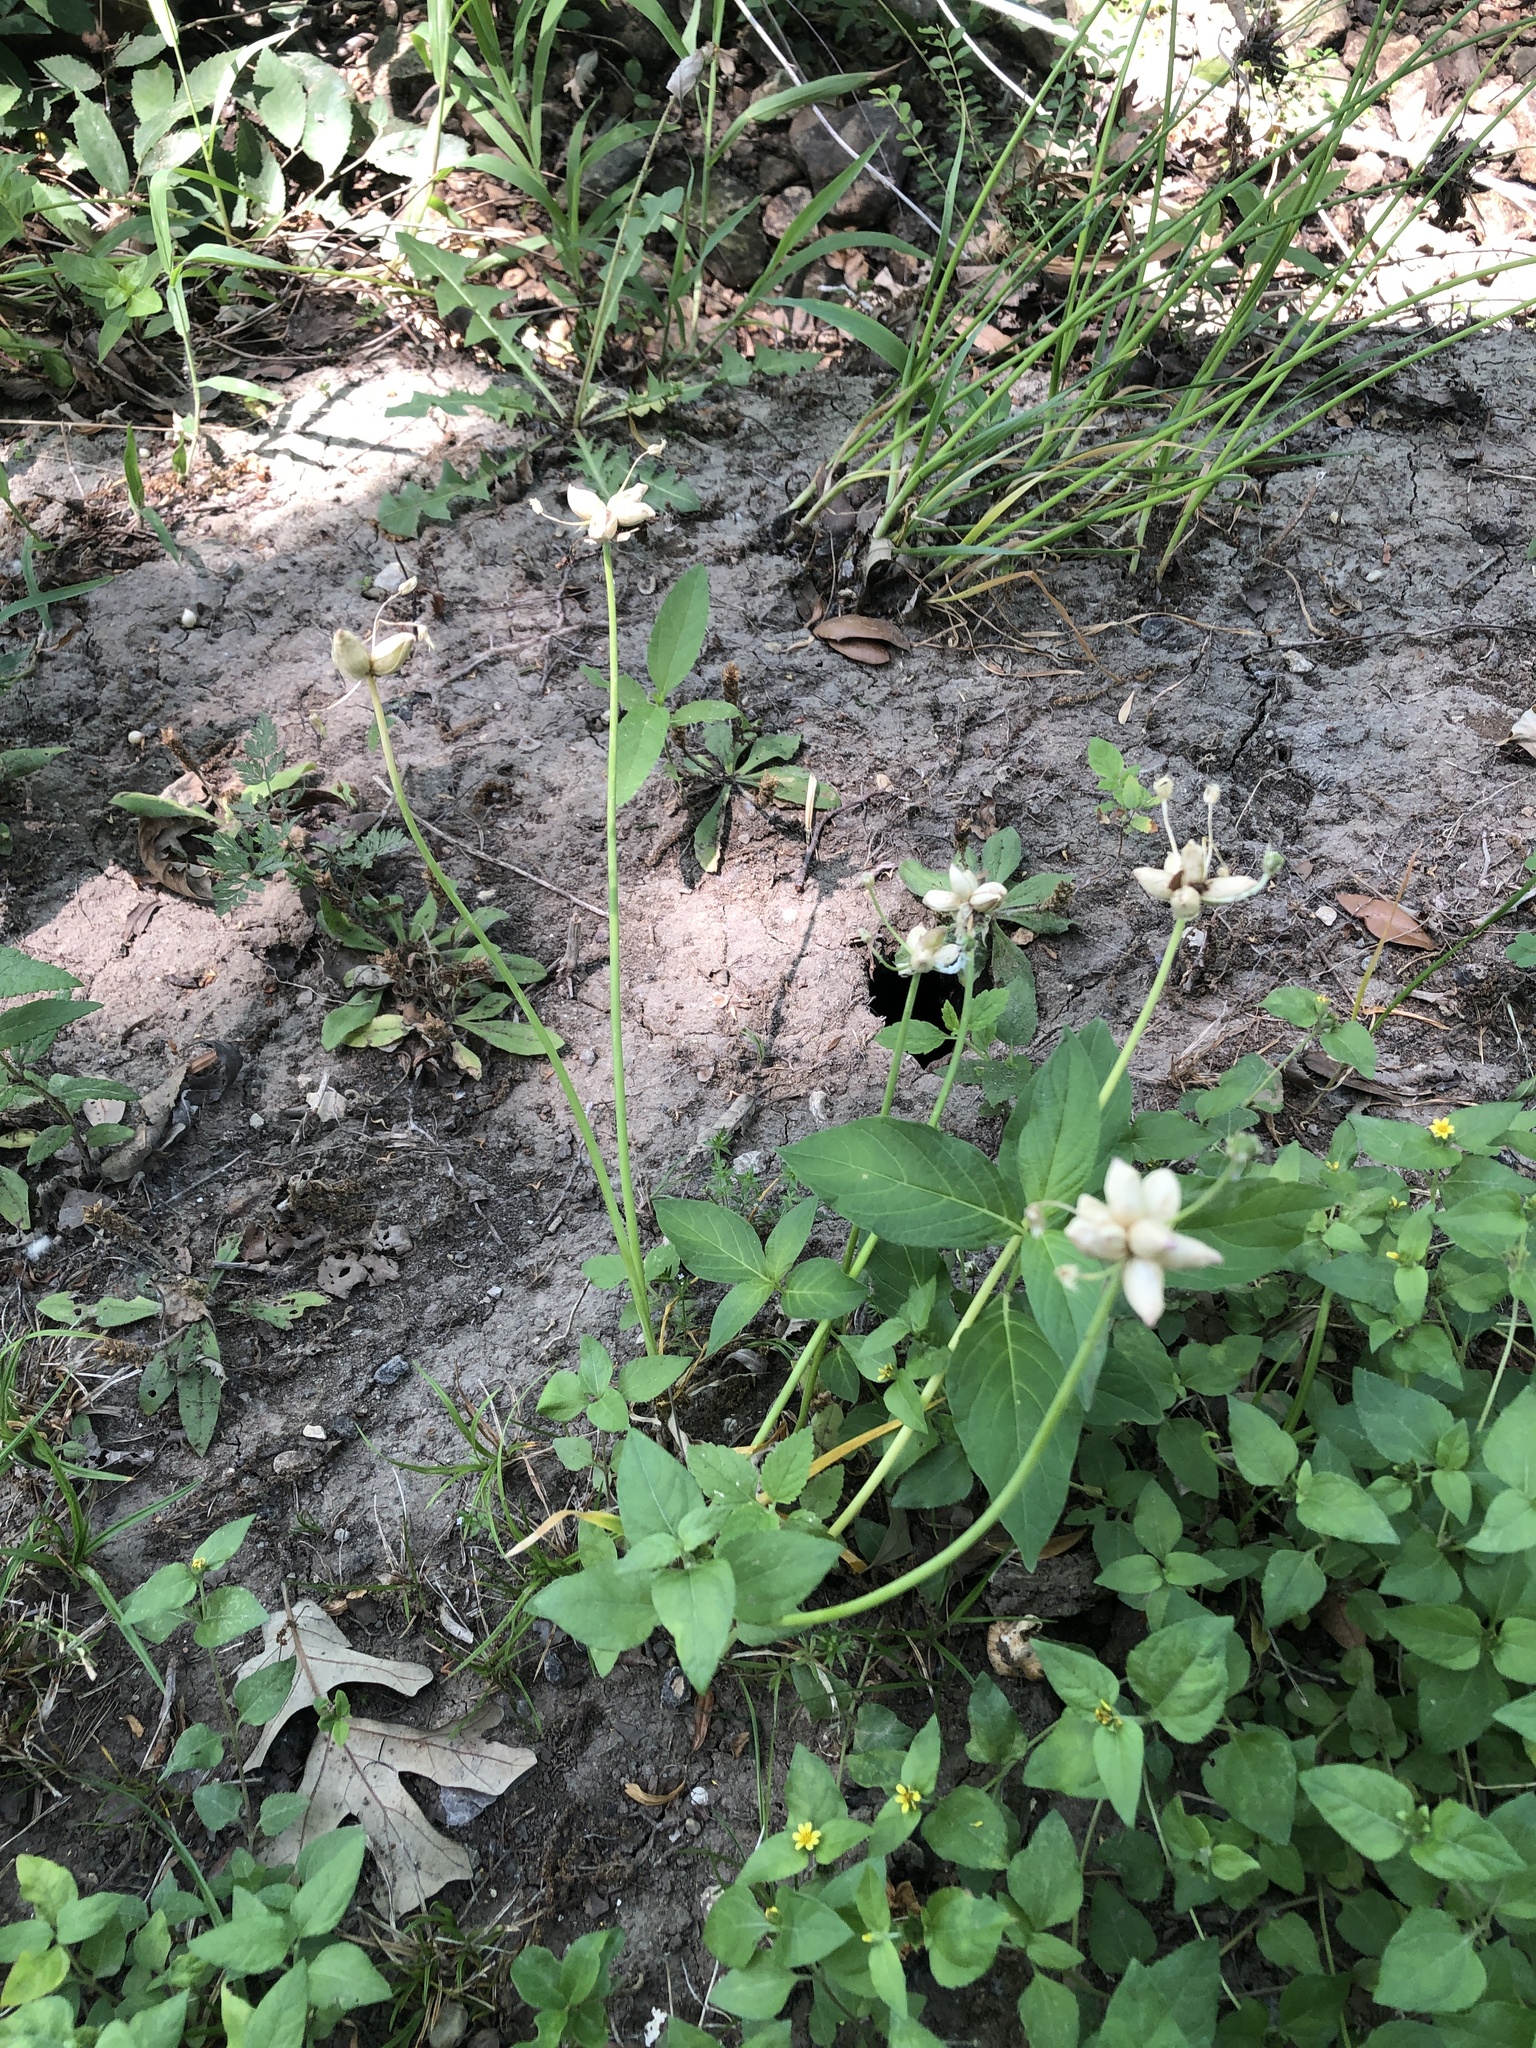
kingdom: Plantae
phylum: Tracheophyta
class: Liliopsida
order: Asparagales
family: Amaryllidaceae
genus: Allium
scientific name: Allium canadense
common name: Meadow garlic
